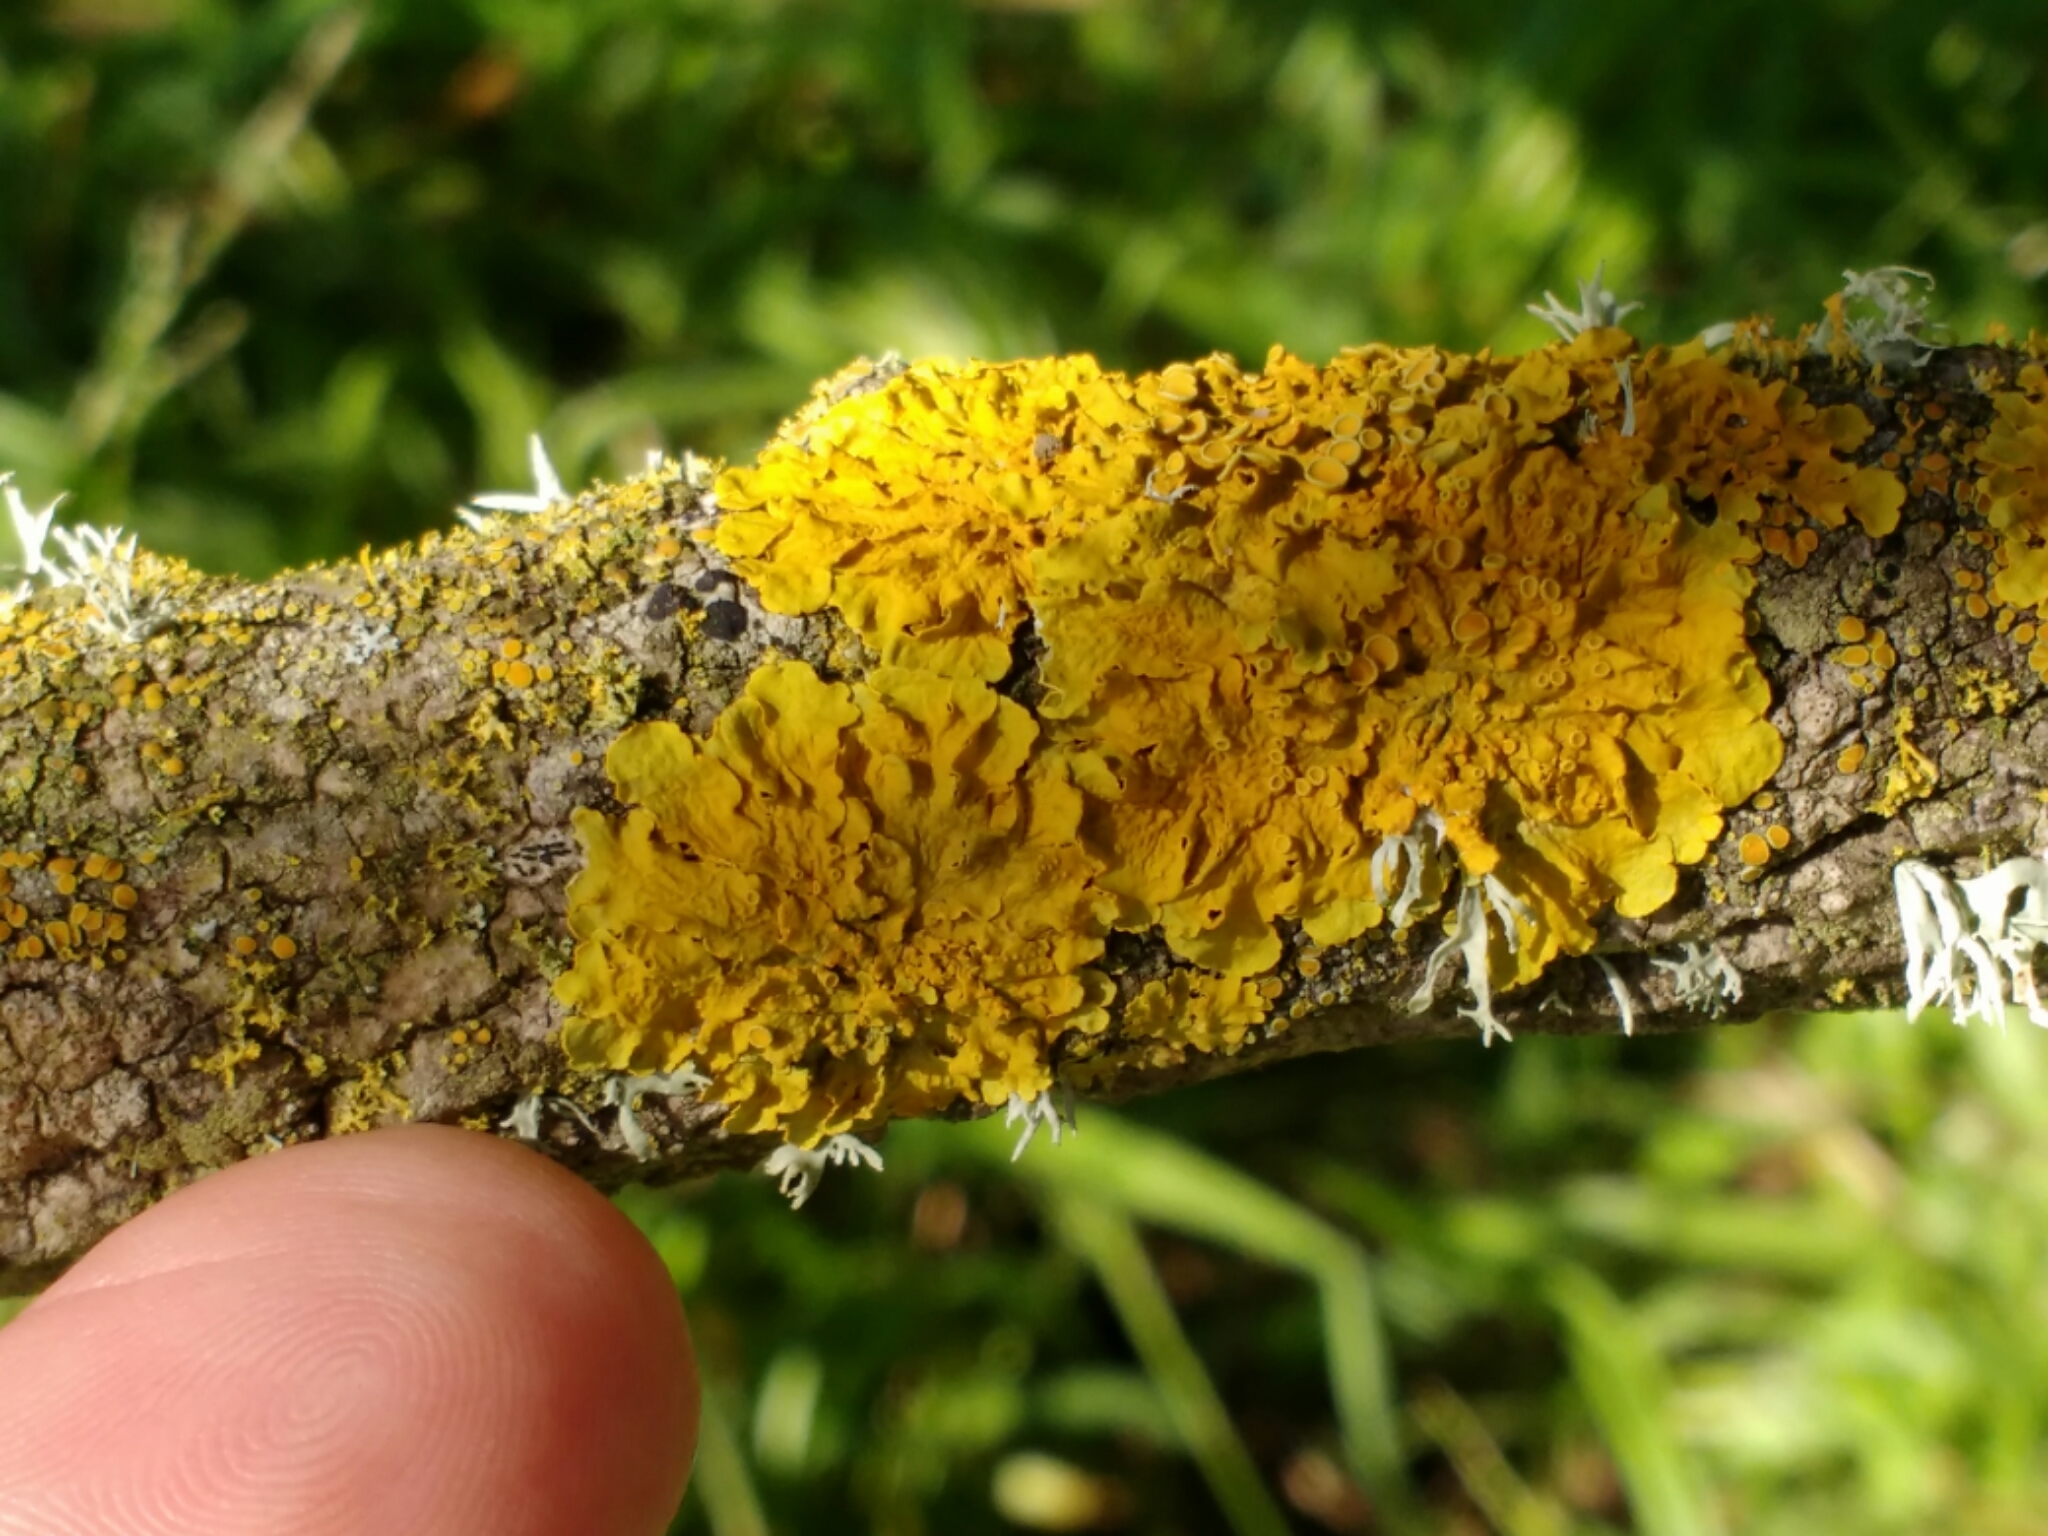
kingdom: Fungi
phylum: Ascomycota
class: Lecanoromycetes
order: Teloschistales
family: Teloschistaceae
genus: Xanthoria
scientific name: Xanthoria parietina
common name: Common orange lichen
